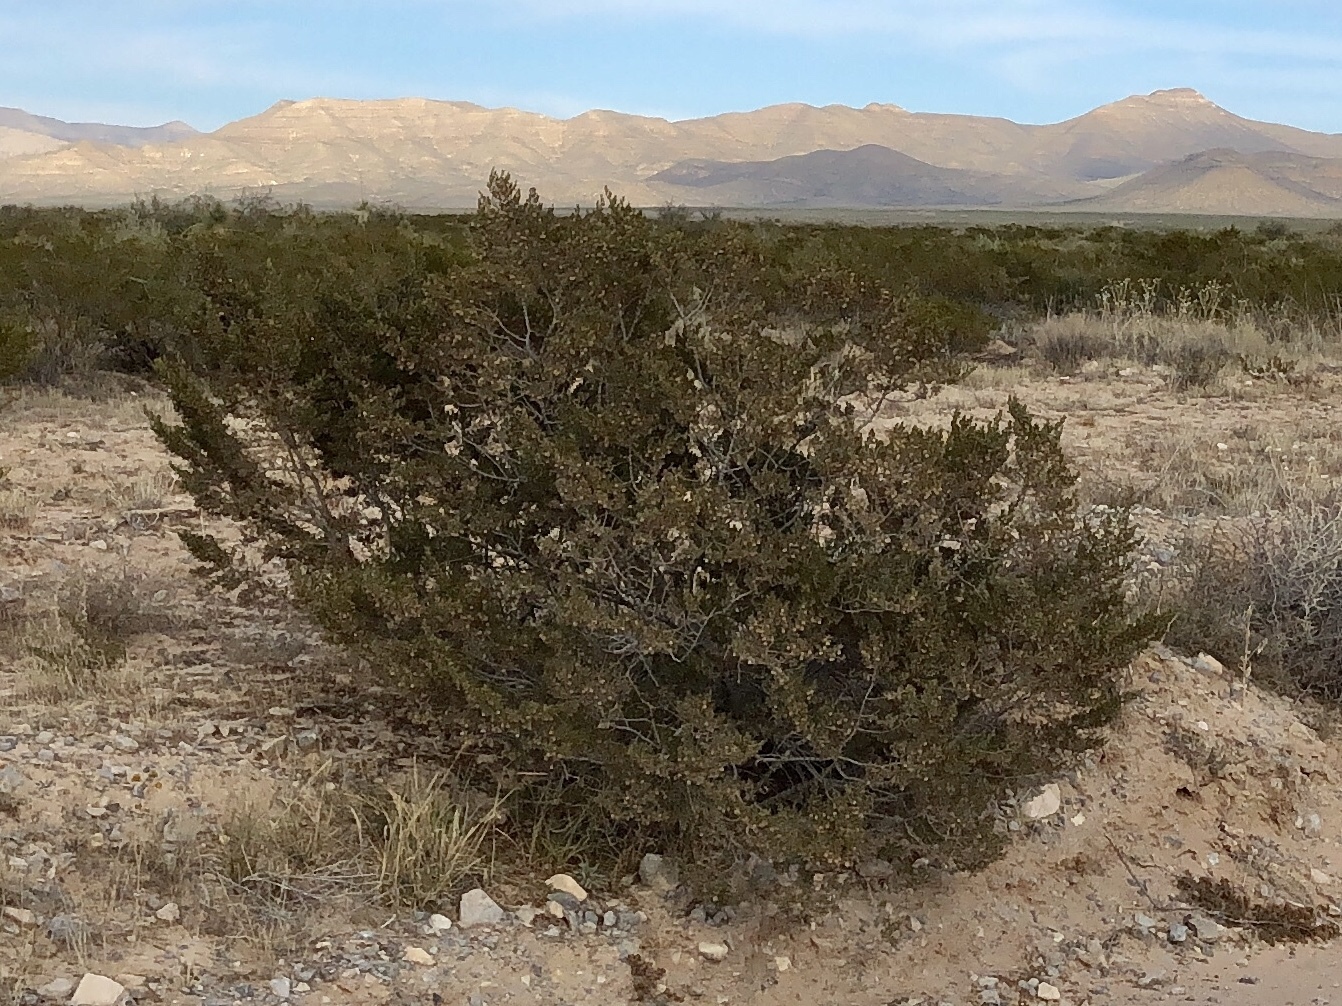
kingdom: Plantae
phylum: Tracheophyta
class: Magnoliopsida
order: Zygophyllales
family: Zygophyllaceae
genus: Larrea
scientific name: Larrea tridentata
